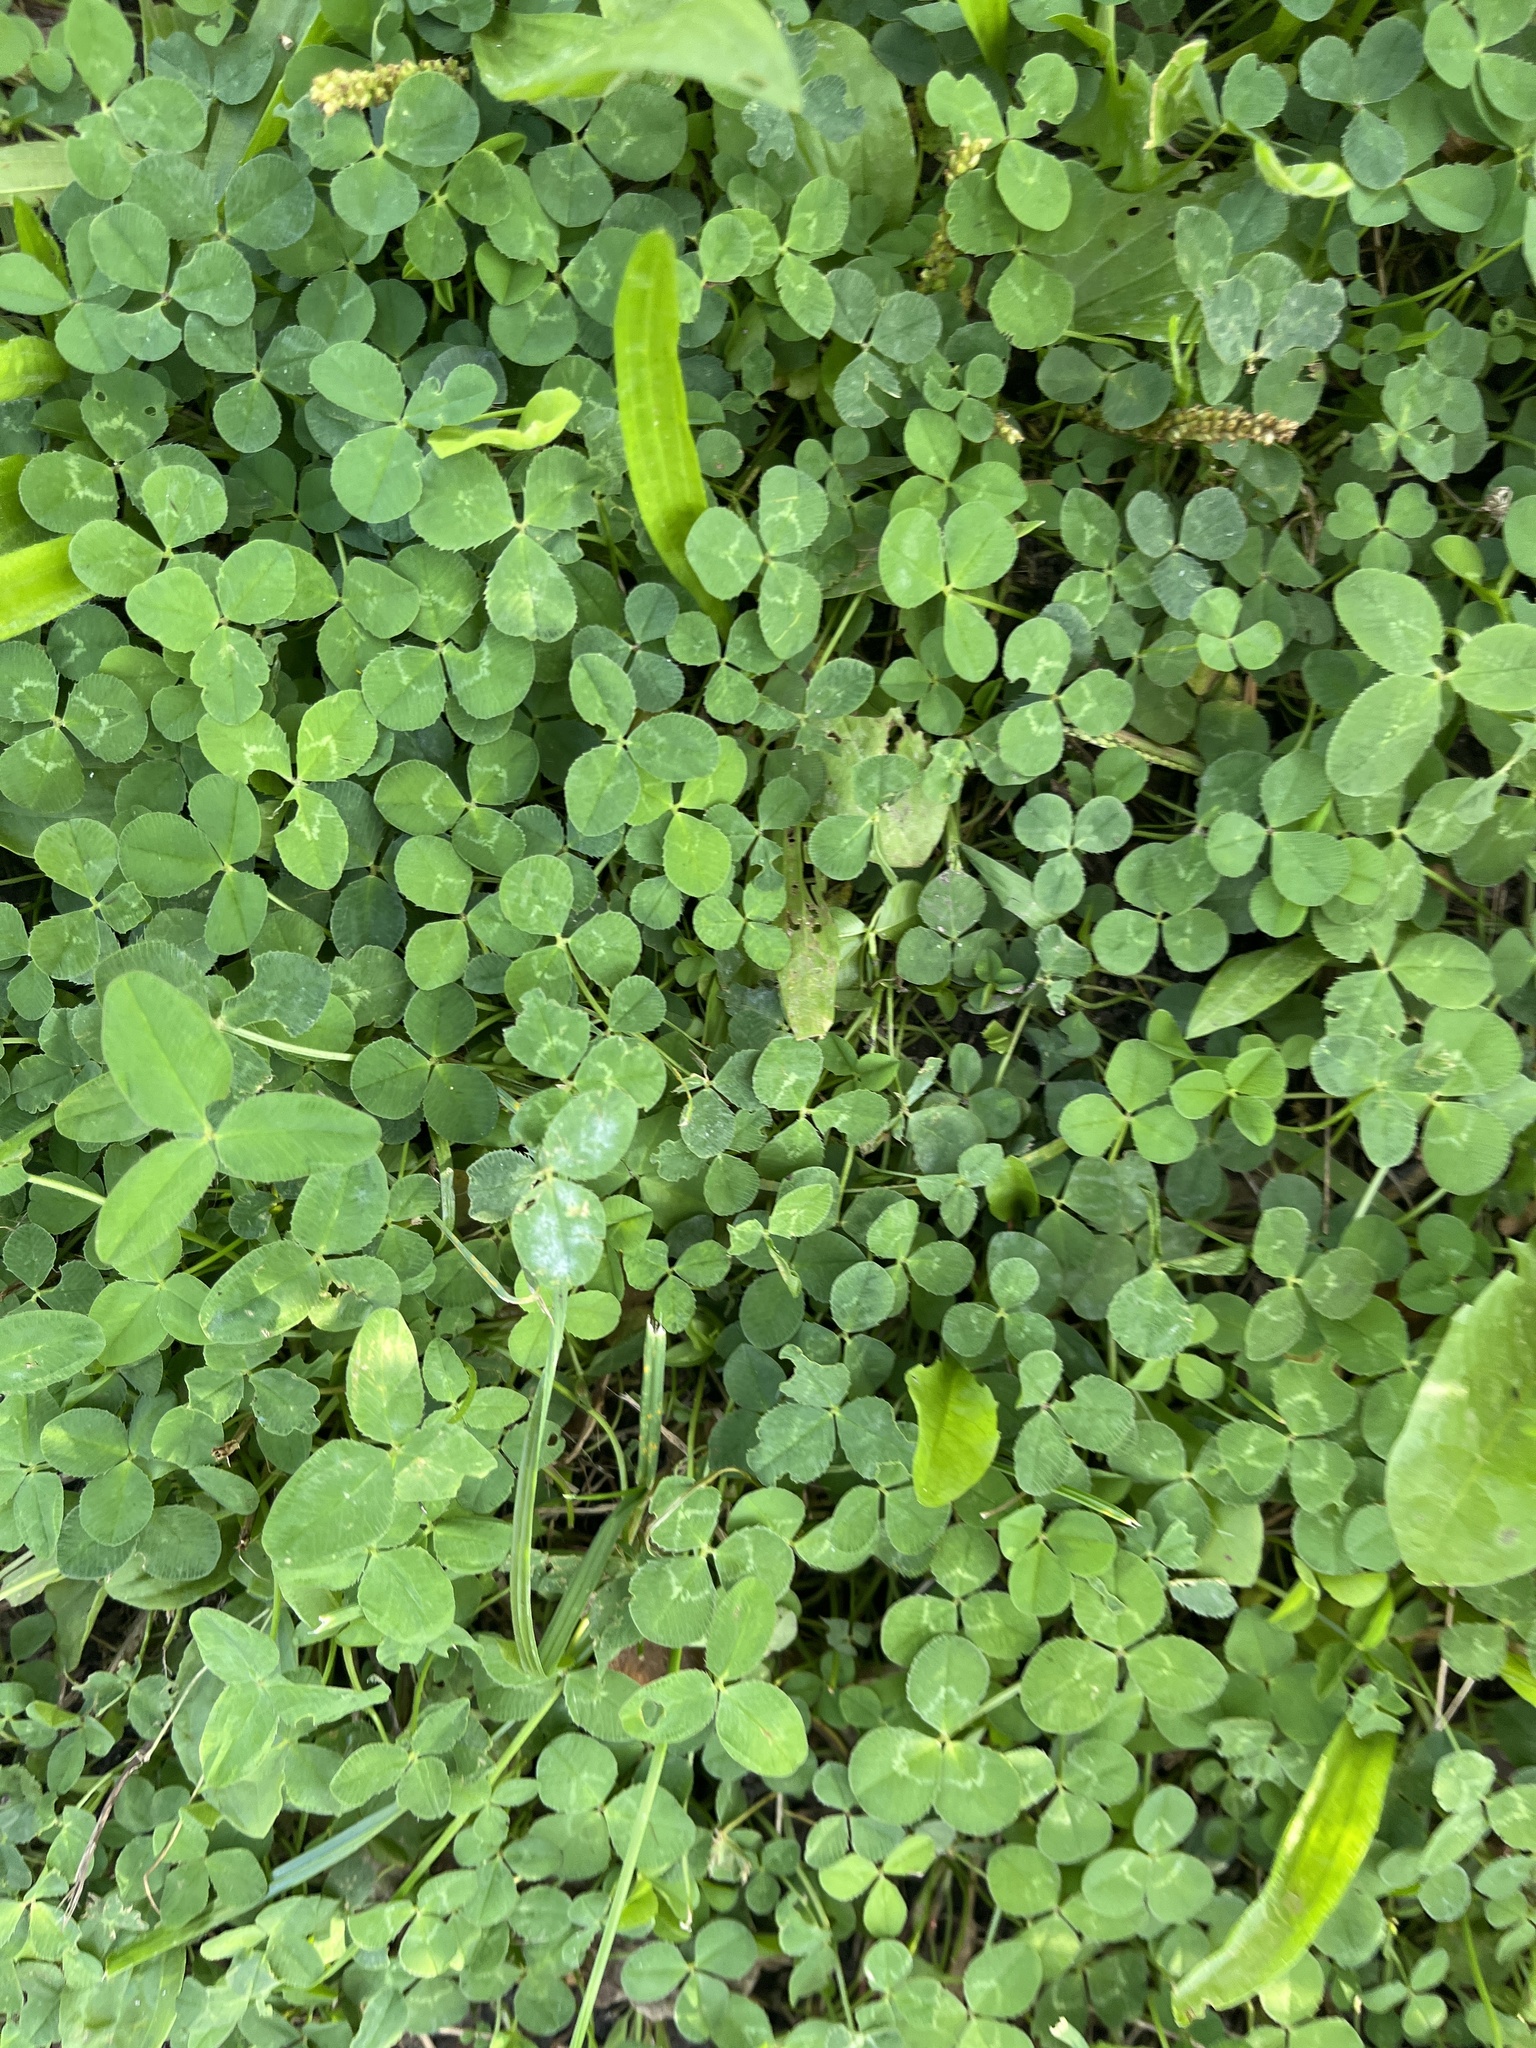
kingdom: Plantae
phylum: Tracheophyta
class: Magnoliopsida
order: Fabales
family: Fabaceae
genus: Trifolium
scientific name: Trifolium repens
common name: White clover
